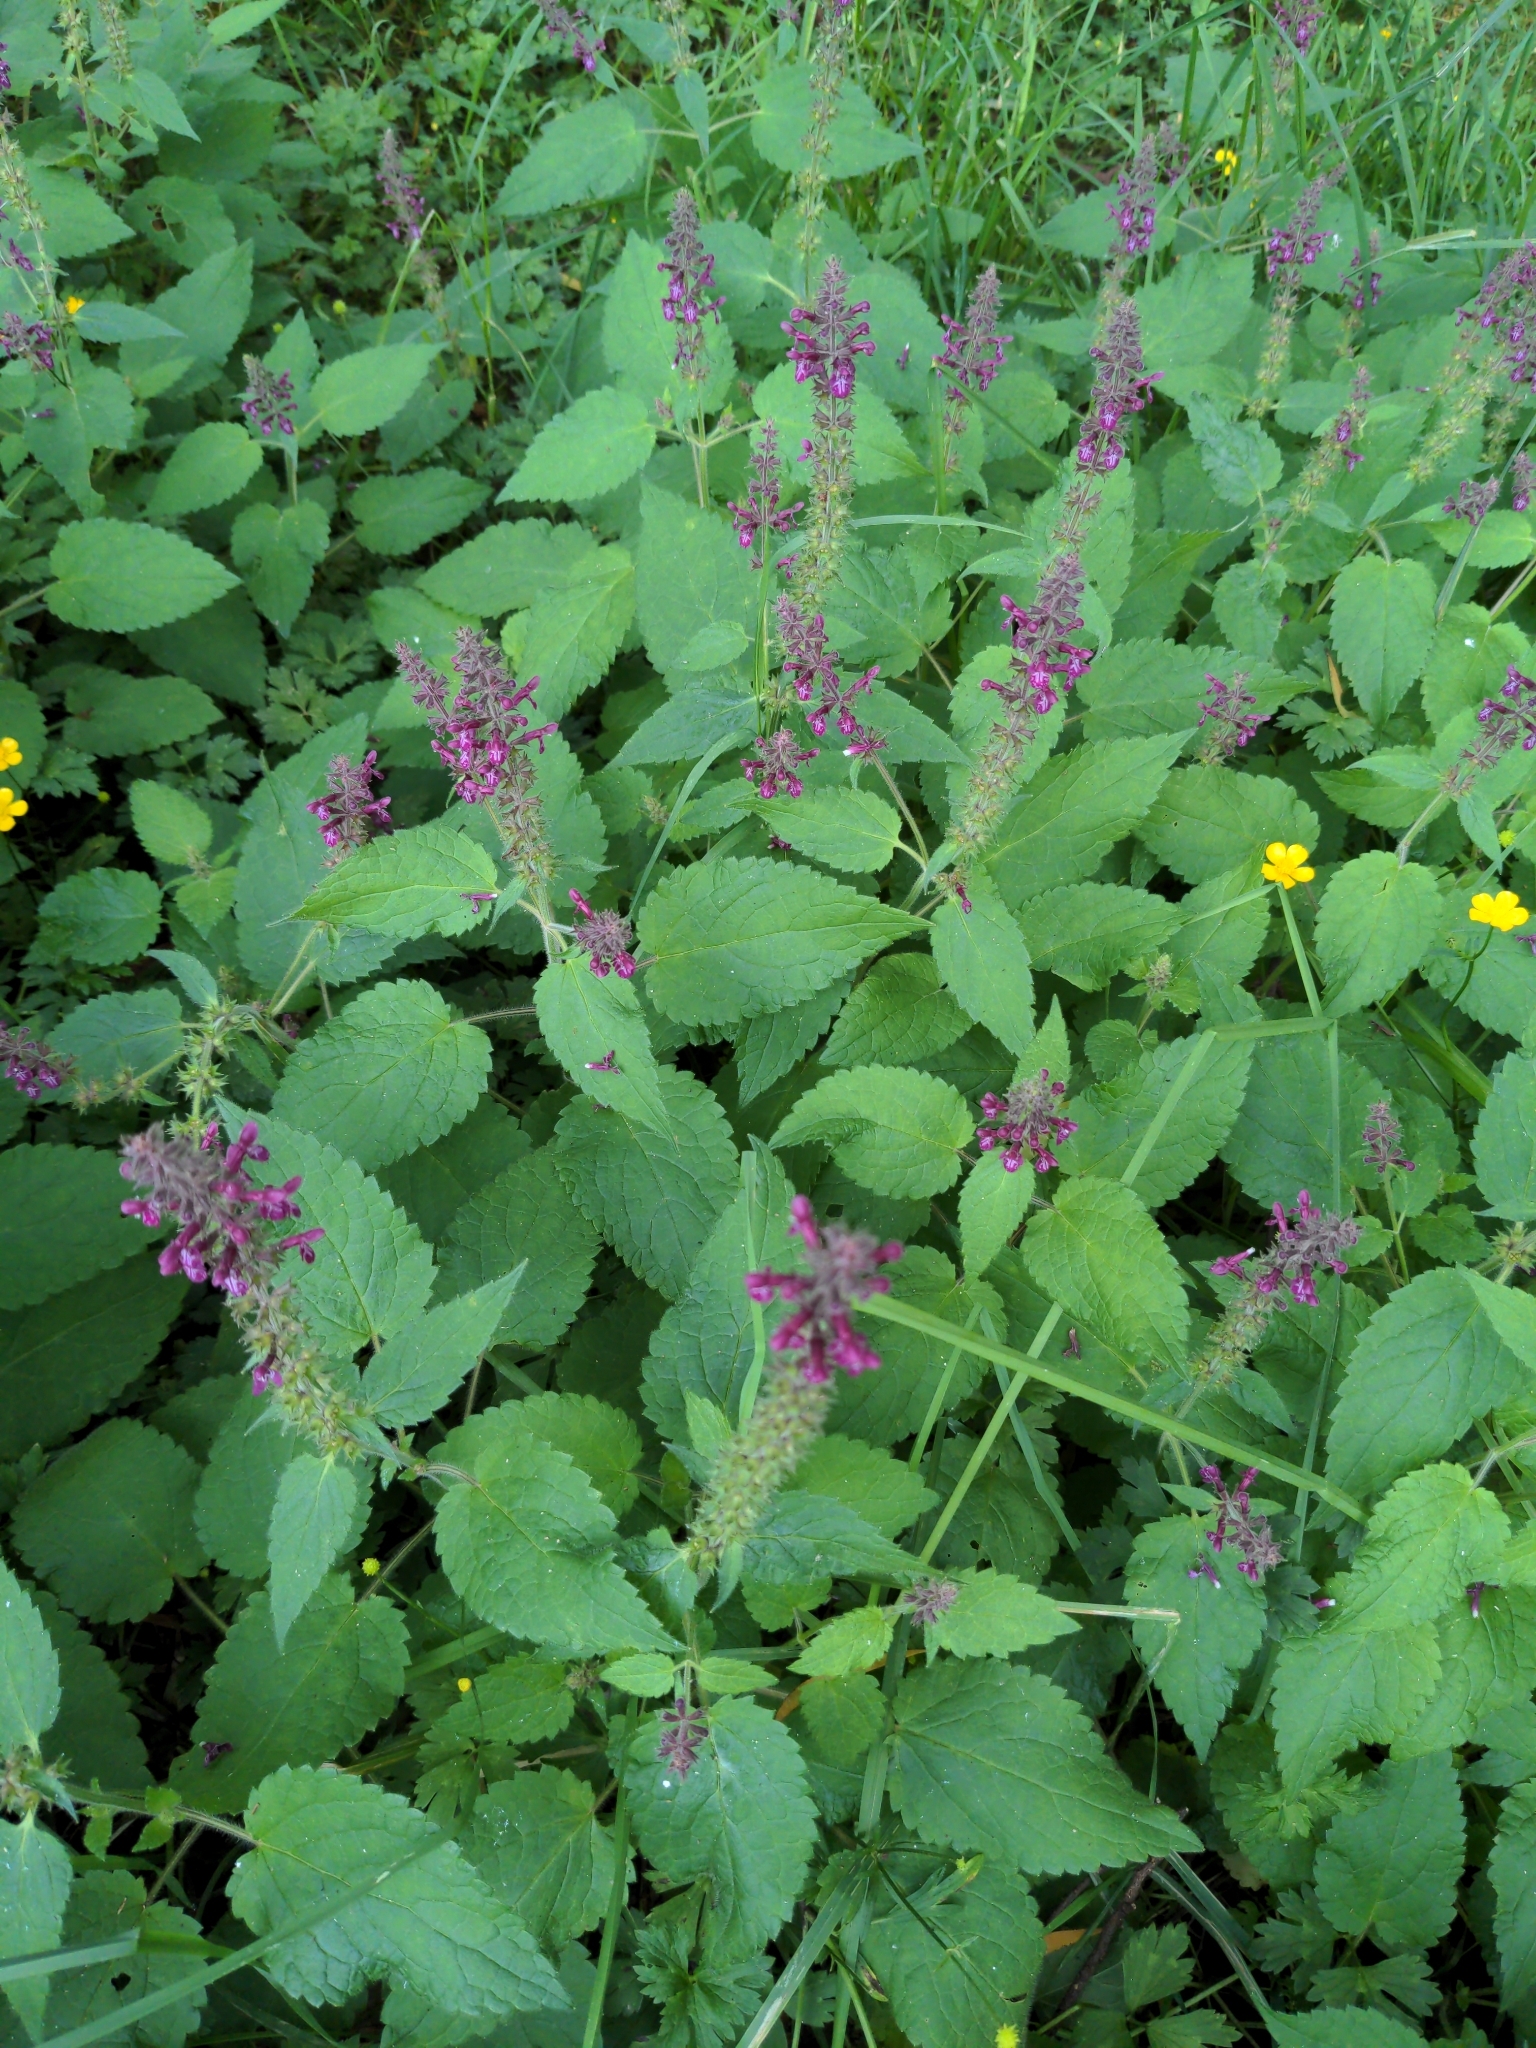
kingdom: Plantae
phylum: Tracheophyta
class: Magnoliopsida
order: Lamiales
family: Lamiaceae
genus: Stachys
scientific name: Stachys sylvatica
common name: Hedge woundwort
